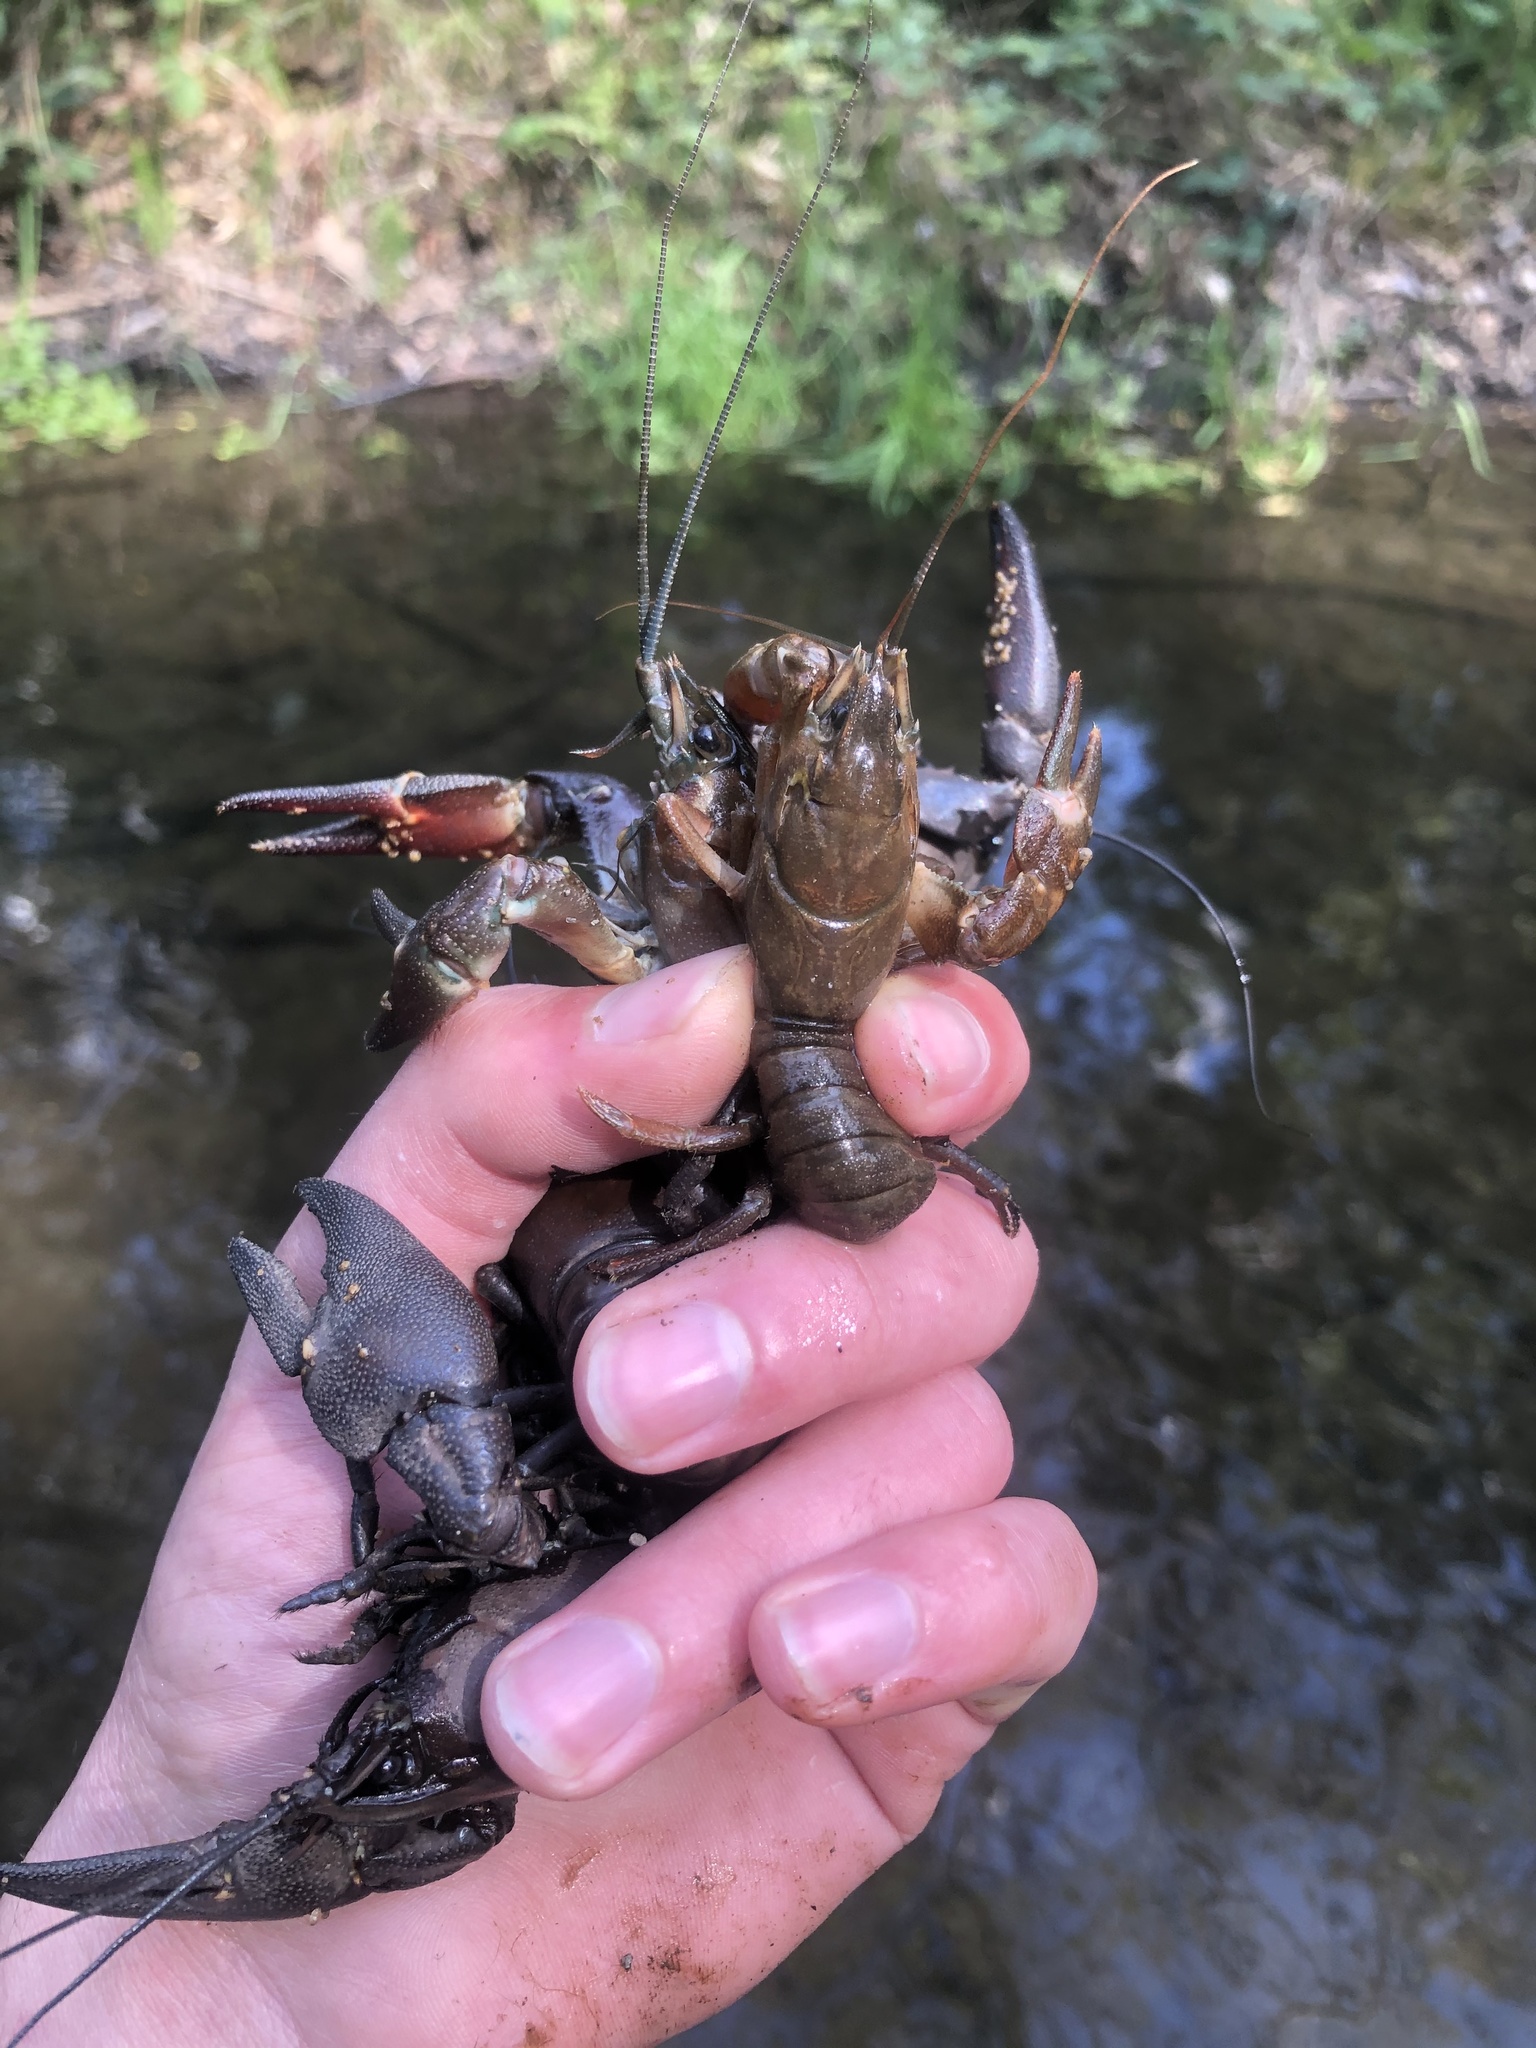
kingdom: Animalia
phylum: Arthropoda
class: Malacostraca
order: Decapoda
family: Astacidae
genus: Pacifastacus
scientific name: Pacifastacus leniusculus
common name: Signal crayfish
